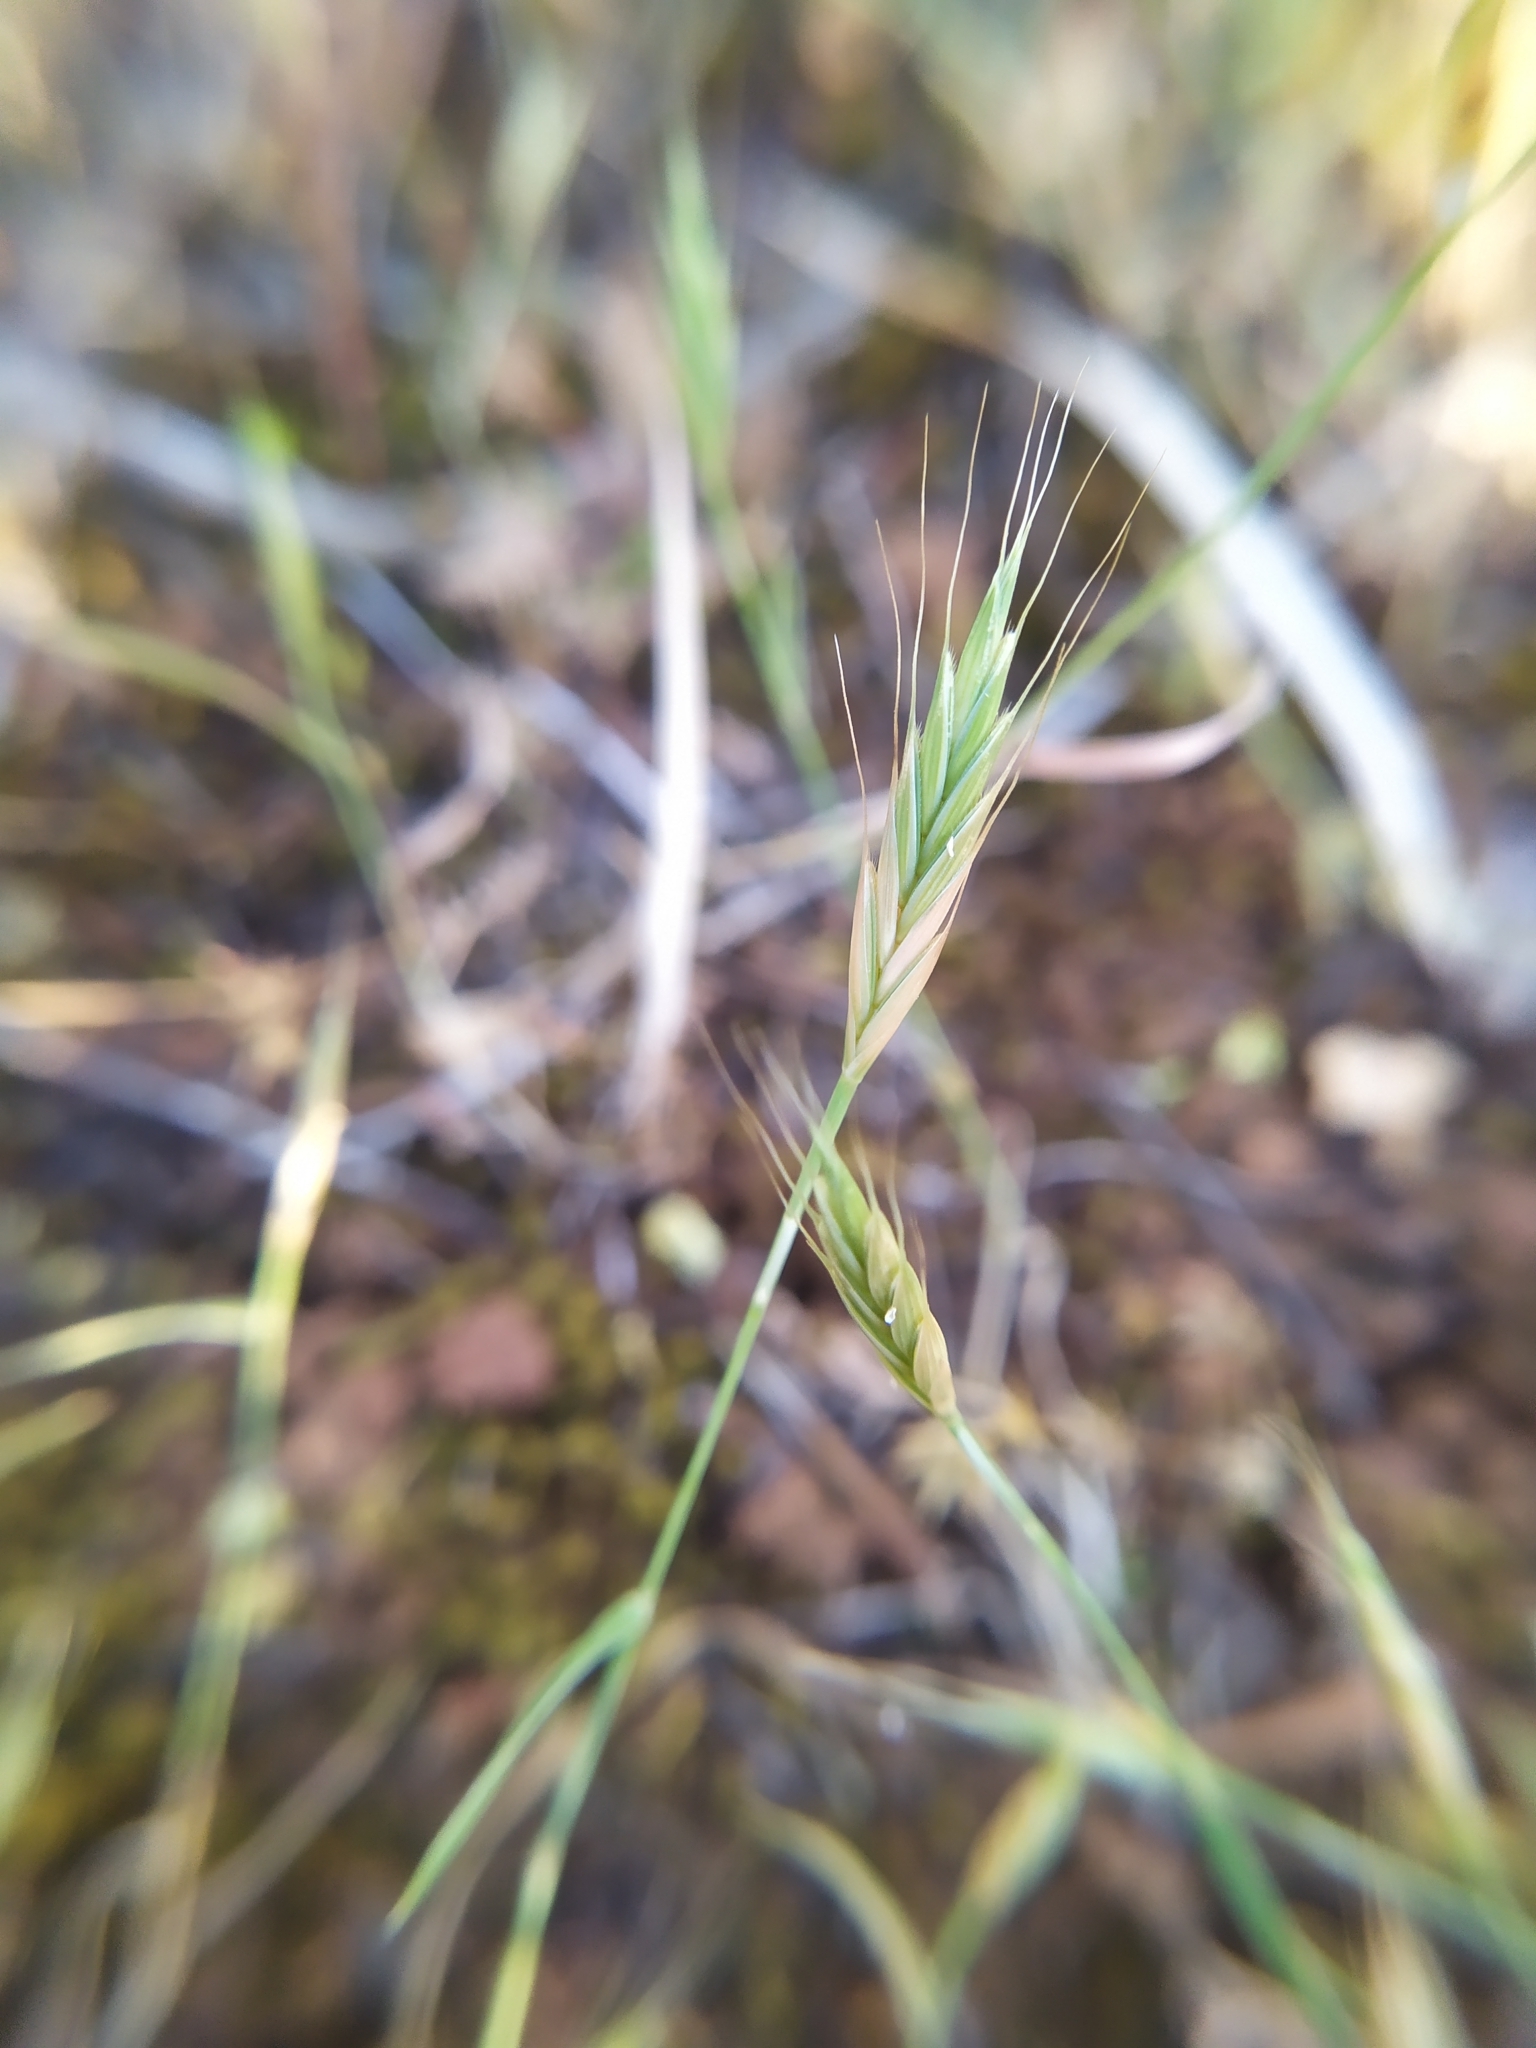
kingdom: Plantae
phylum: Tracheophyta
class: Liliopsida
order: Poales
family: Poaceae
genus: Brachypodium
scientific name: Brachypodium distachyon
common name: Stiff brome
